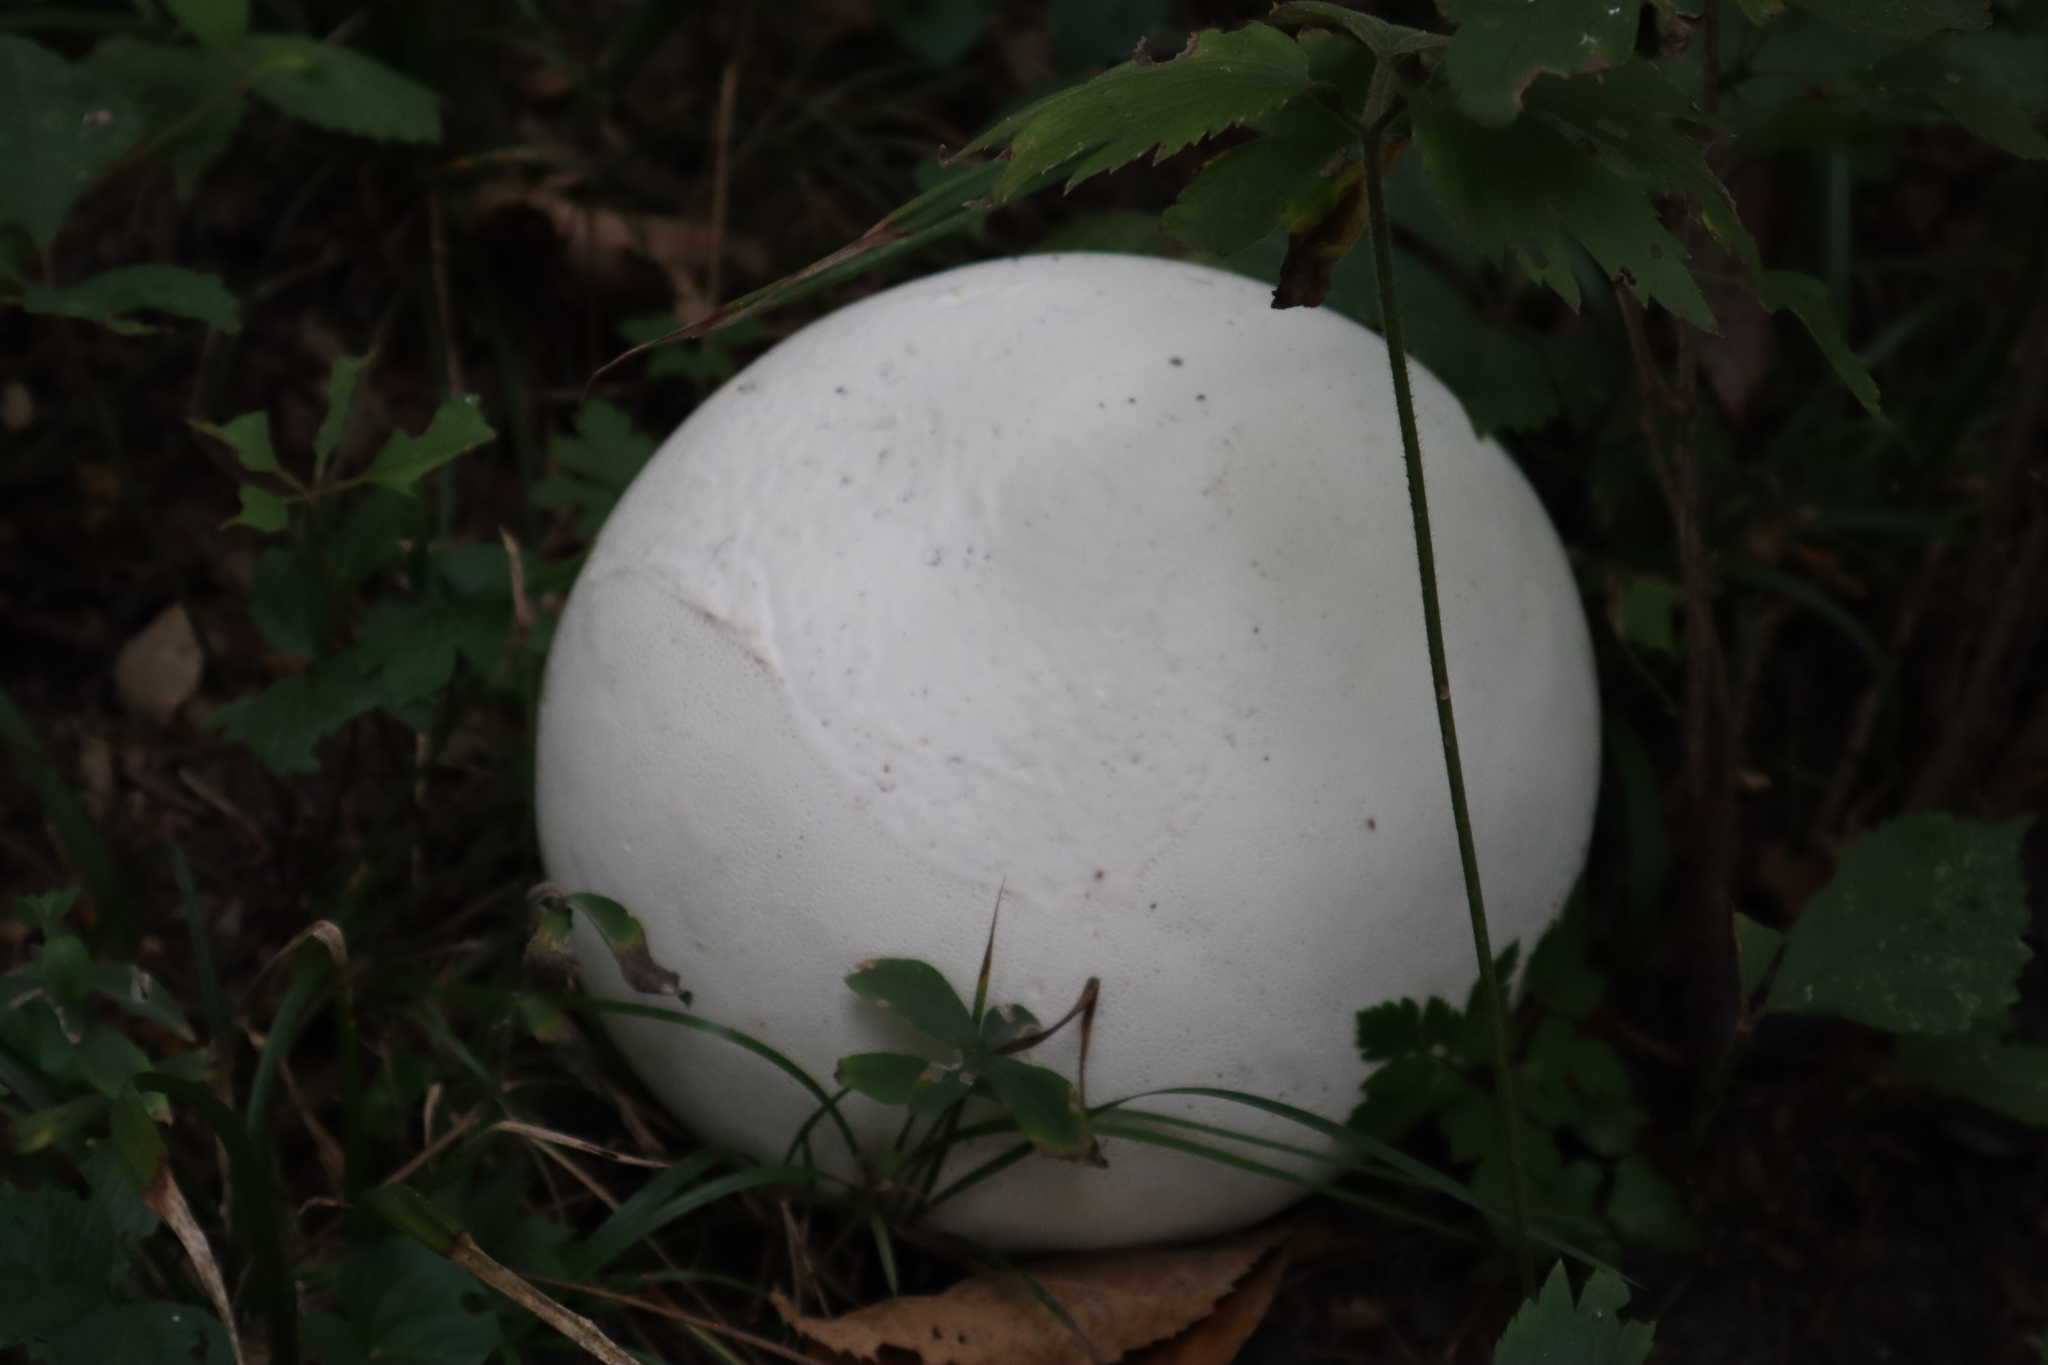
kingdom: Fungi
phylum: Basidiomycota
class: Agaricomycetes
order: Agaricales
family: Lycoperdaceae
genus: Calvatia
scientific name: Calvatia gigantea
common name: Giant puffball
